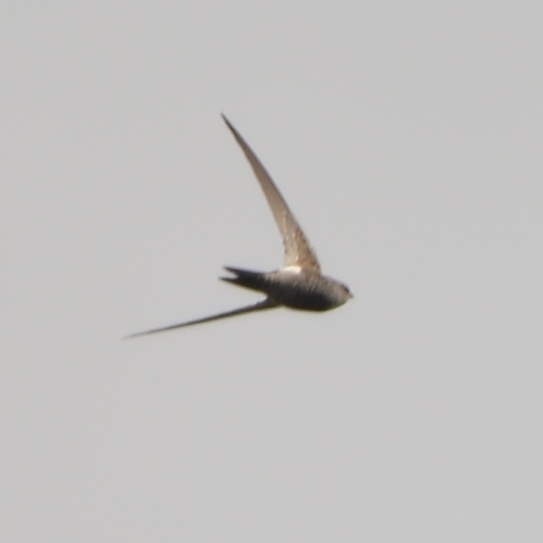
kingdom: Animalia
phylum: Chordata
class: Aves
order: Apodiformes
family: Apodidae
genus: Apus
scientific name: Apus pacificus
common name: Pacific swift
